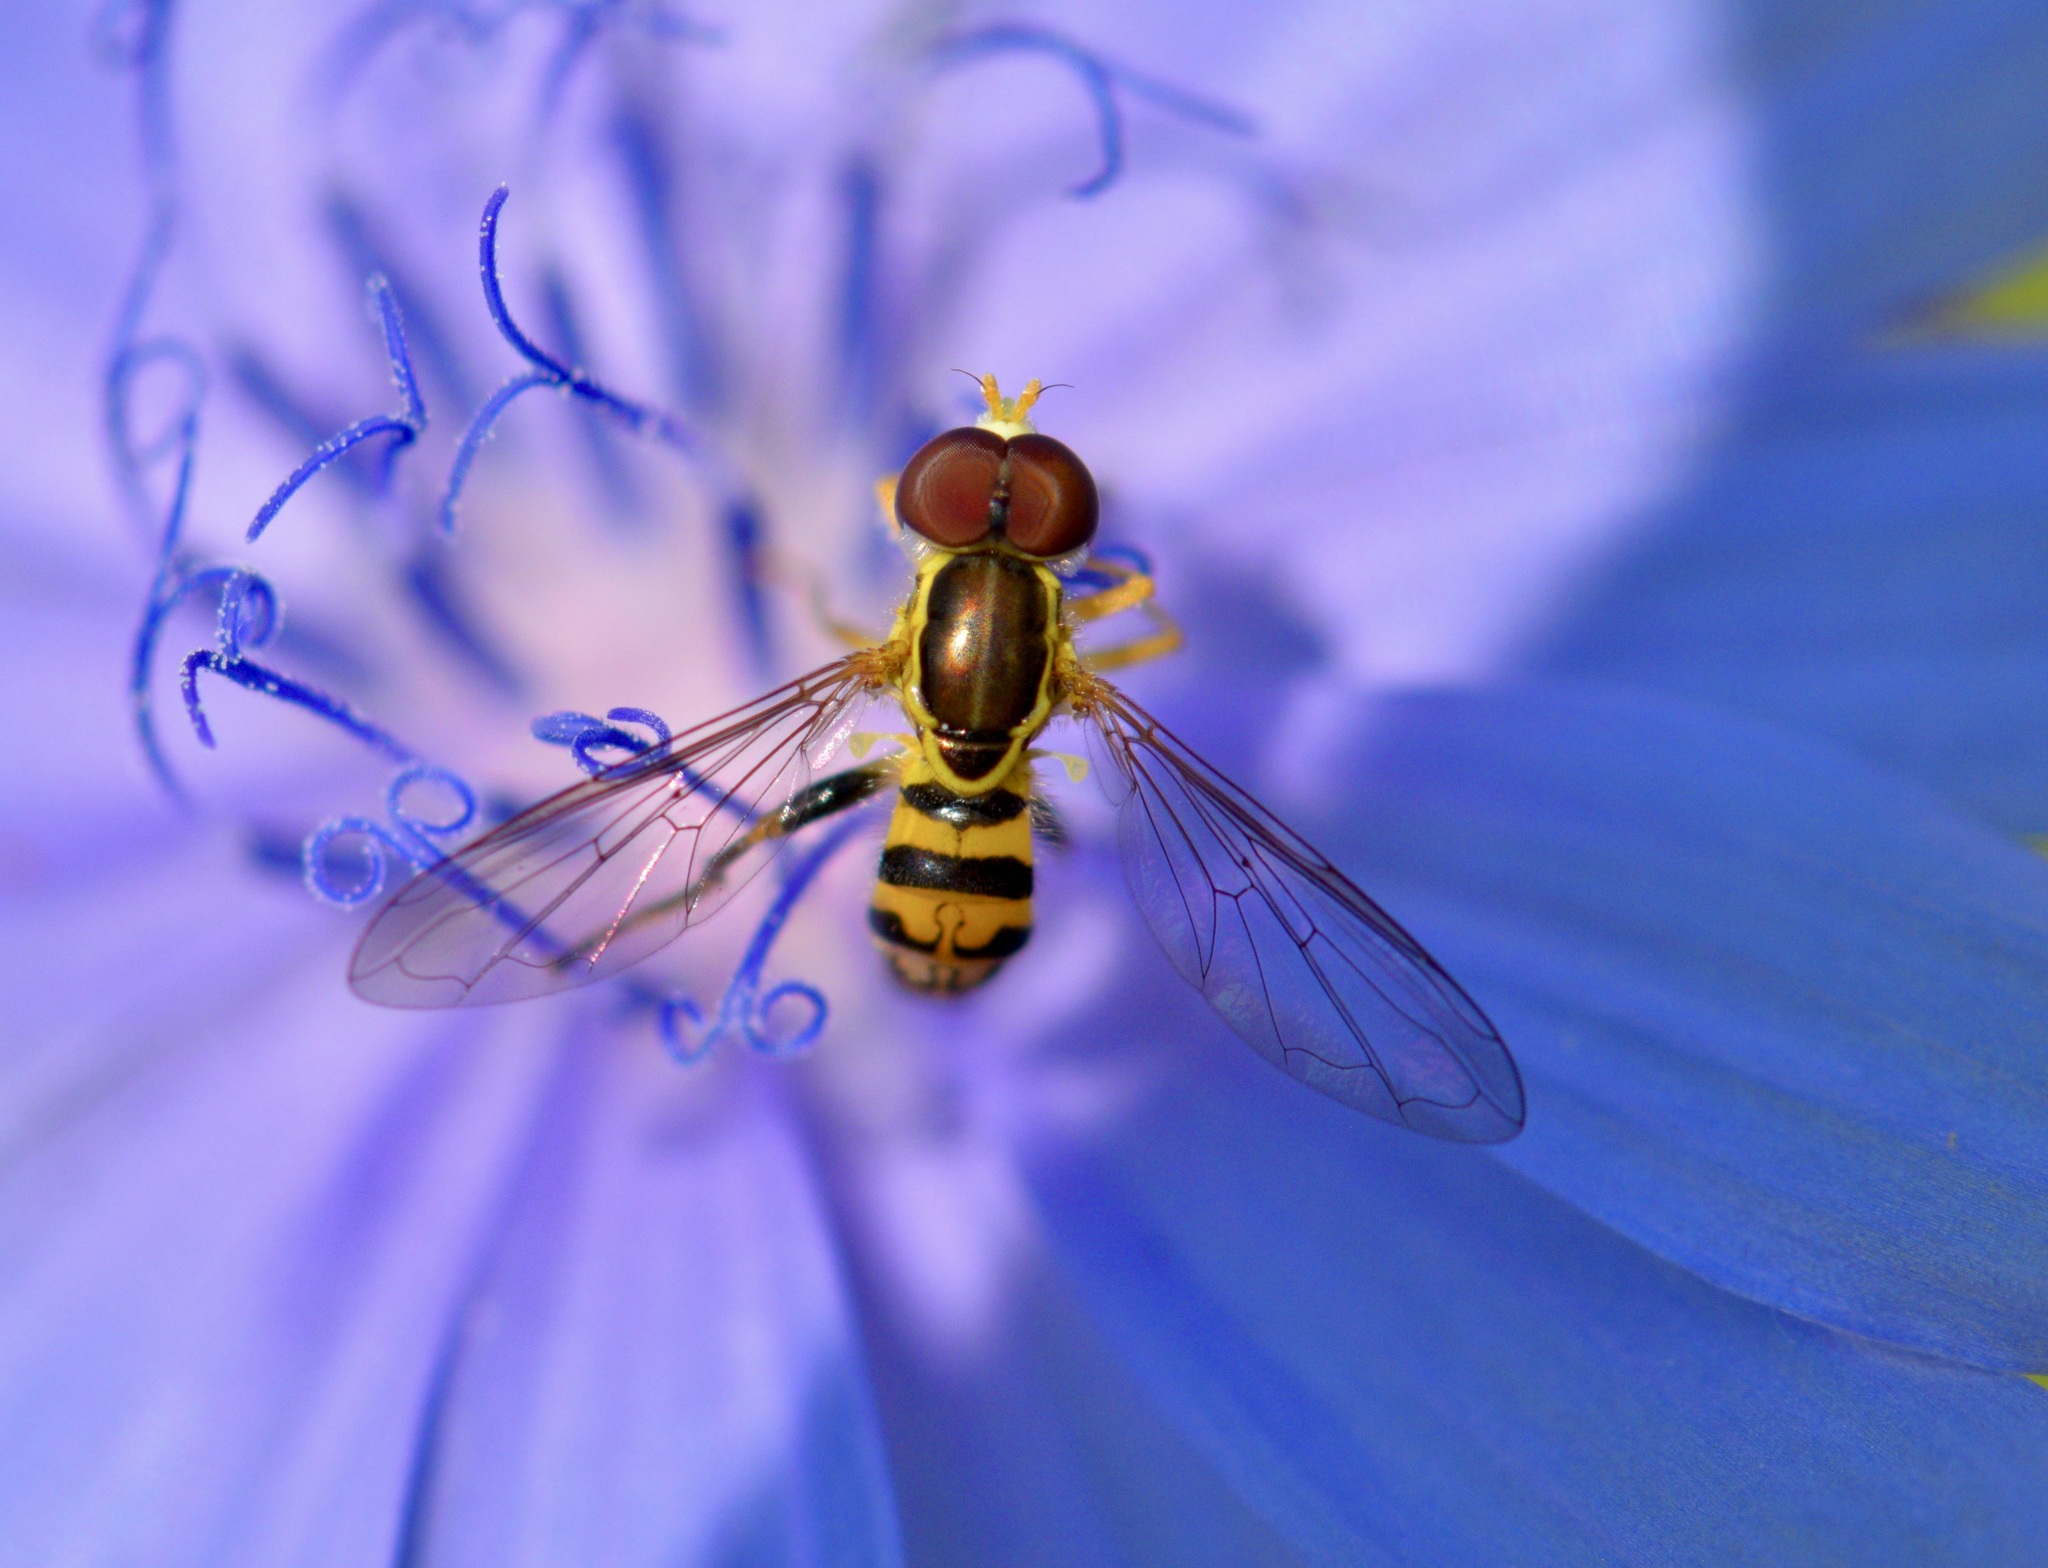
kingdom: Animalia
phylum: Arthropoda
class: Insecta
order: Diptera
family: Syrphidae
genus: Toxomerus
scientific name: Toxomerus geminatus
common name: Eastern calligrapher
